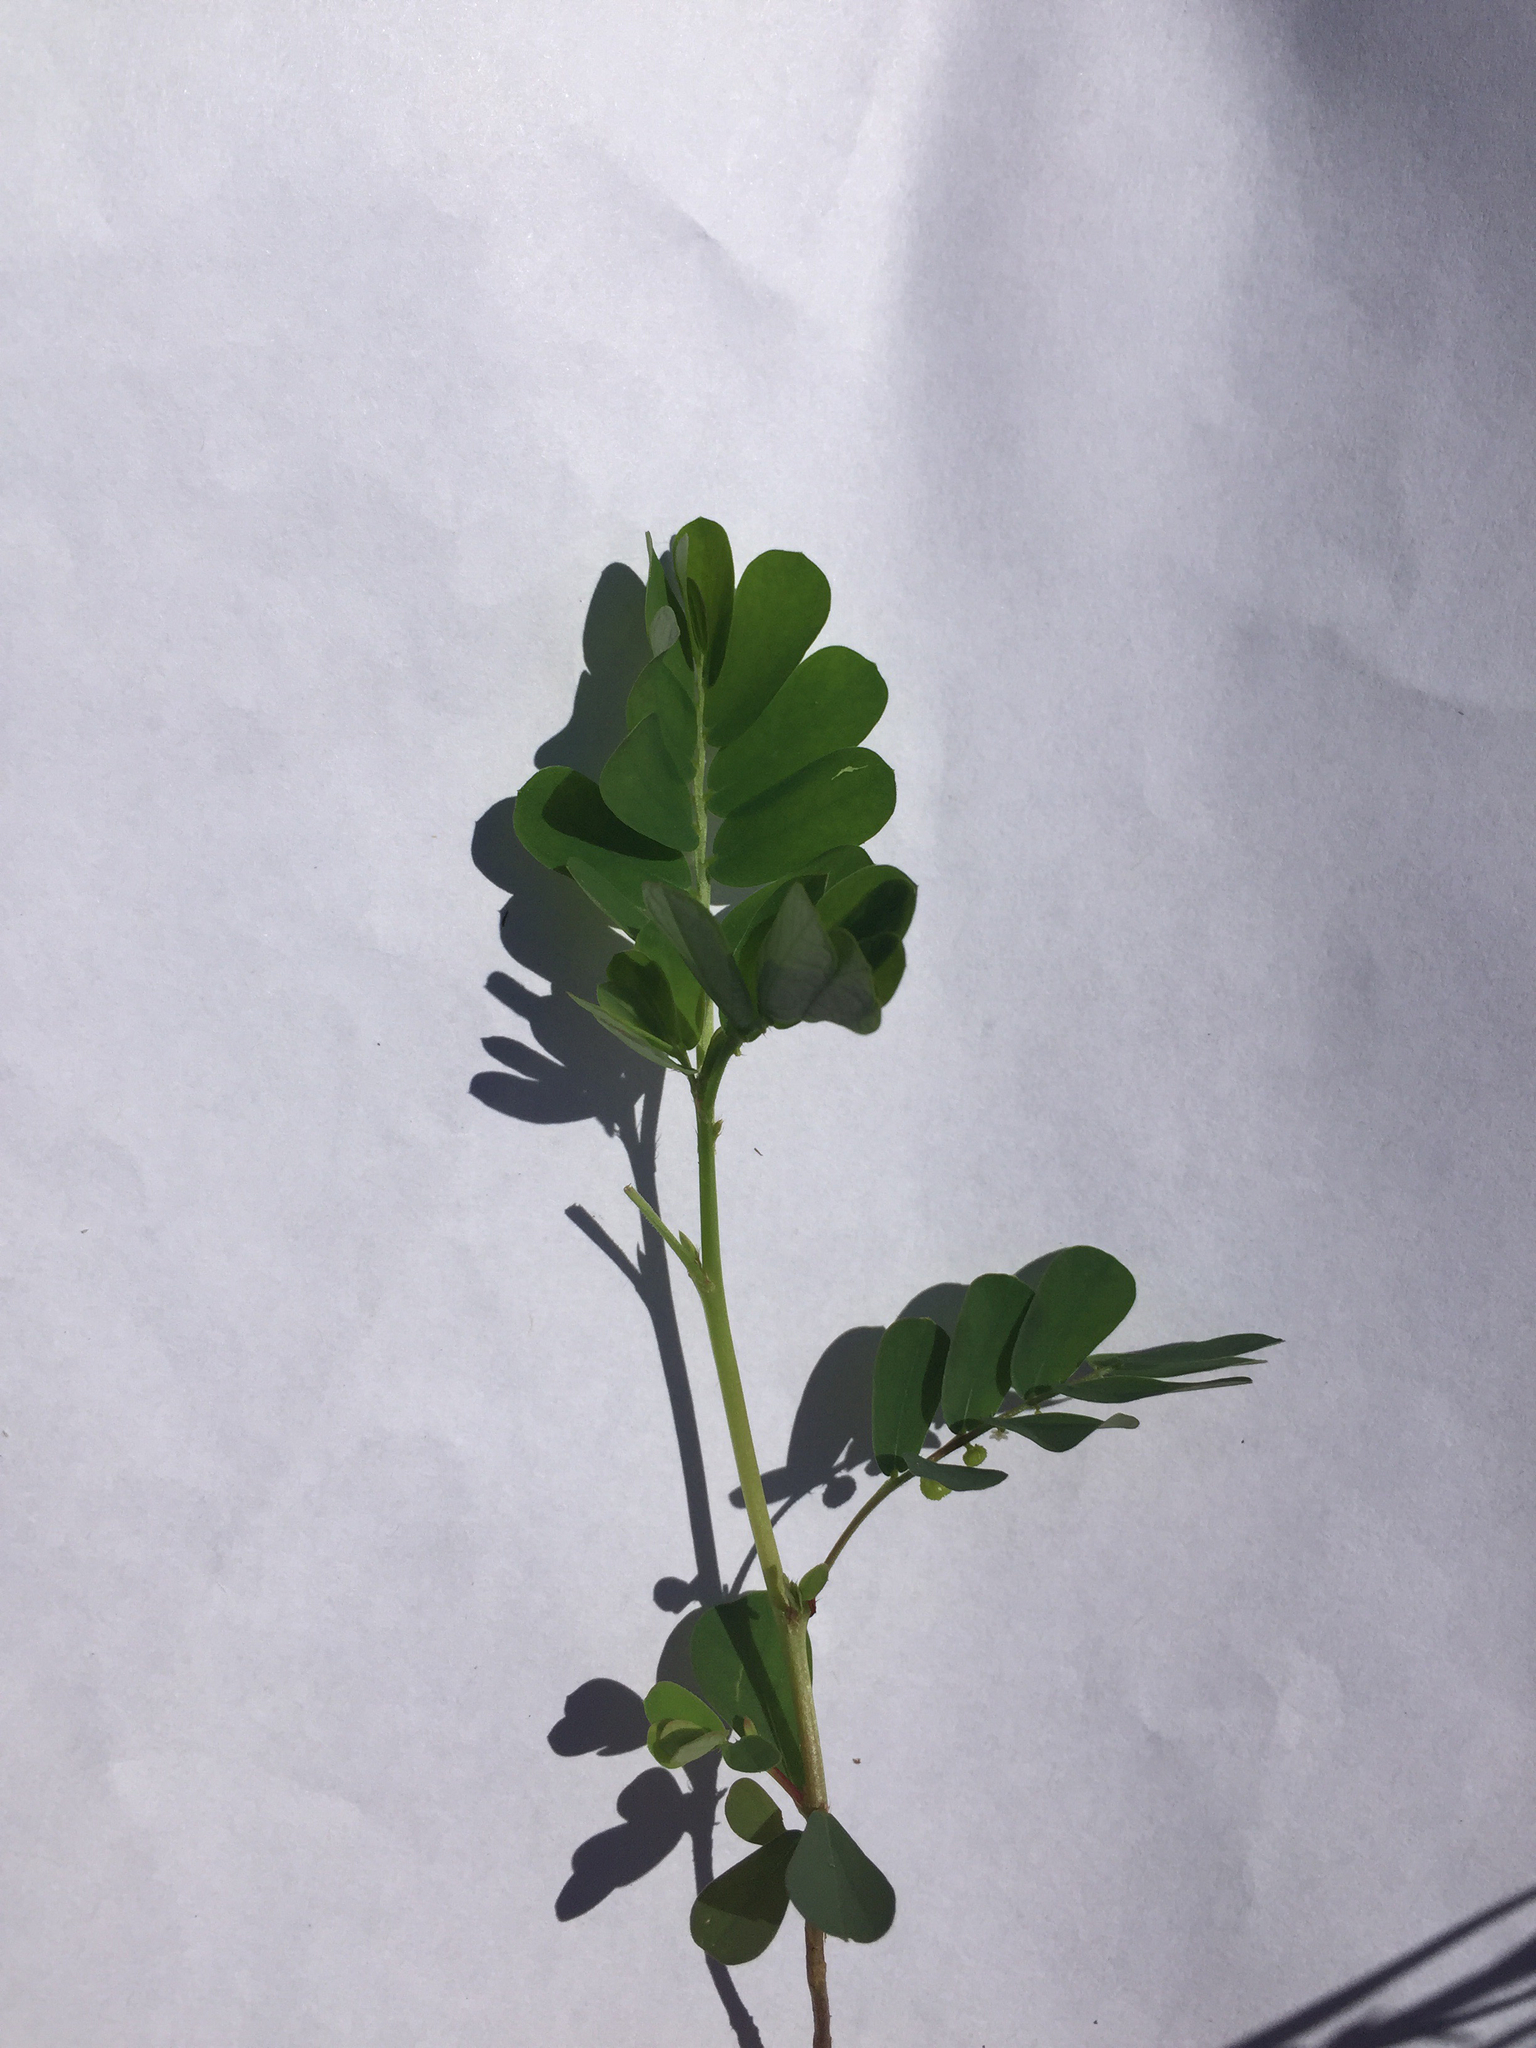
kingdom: Plantae
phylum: Tracheophyta
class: Magnoliopsida
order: Malpighiales
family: Phyllanthaceae
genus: Phyllanthus
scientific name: Phyllanthus urinaria
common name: Chamber bitter
